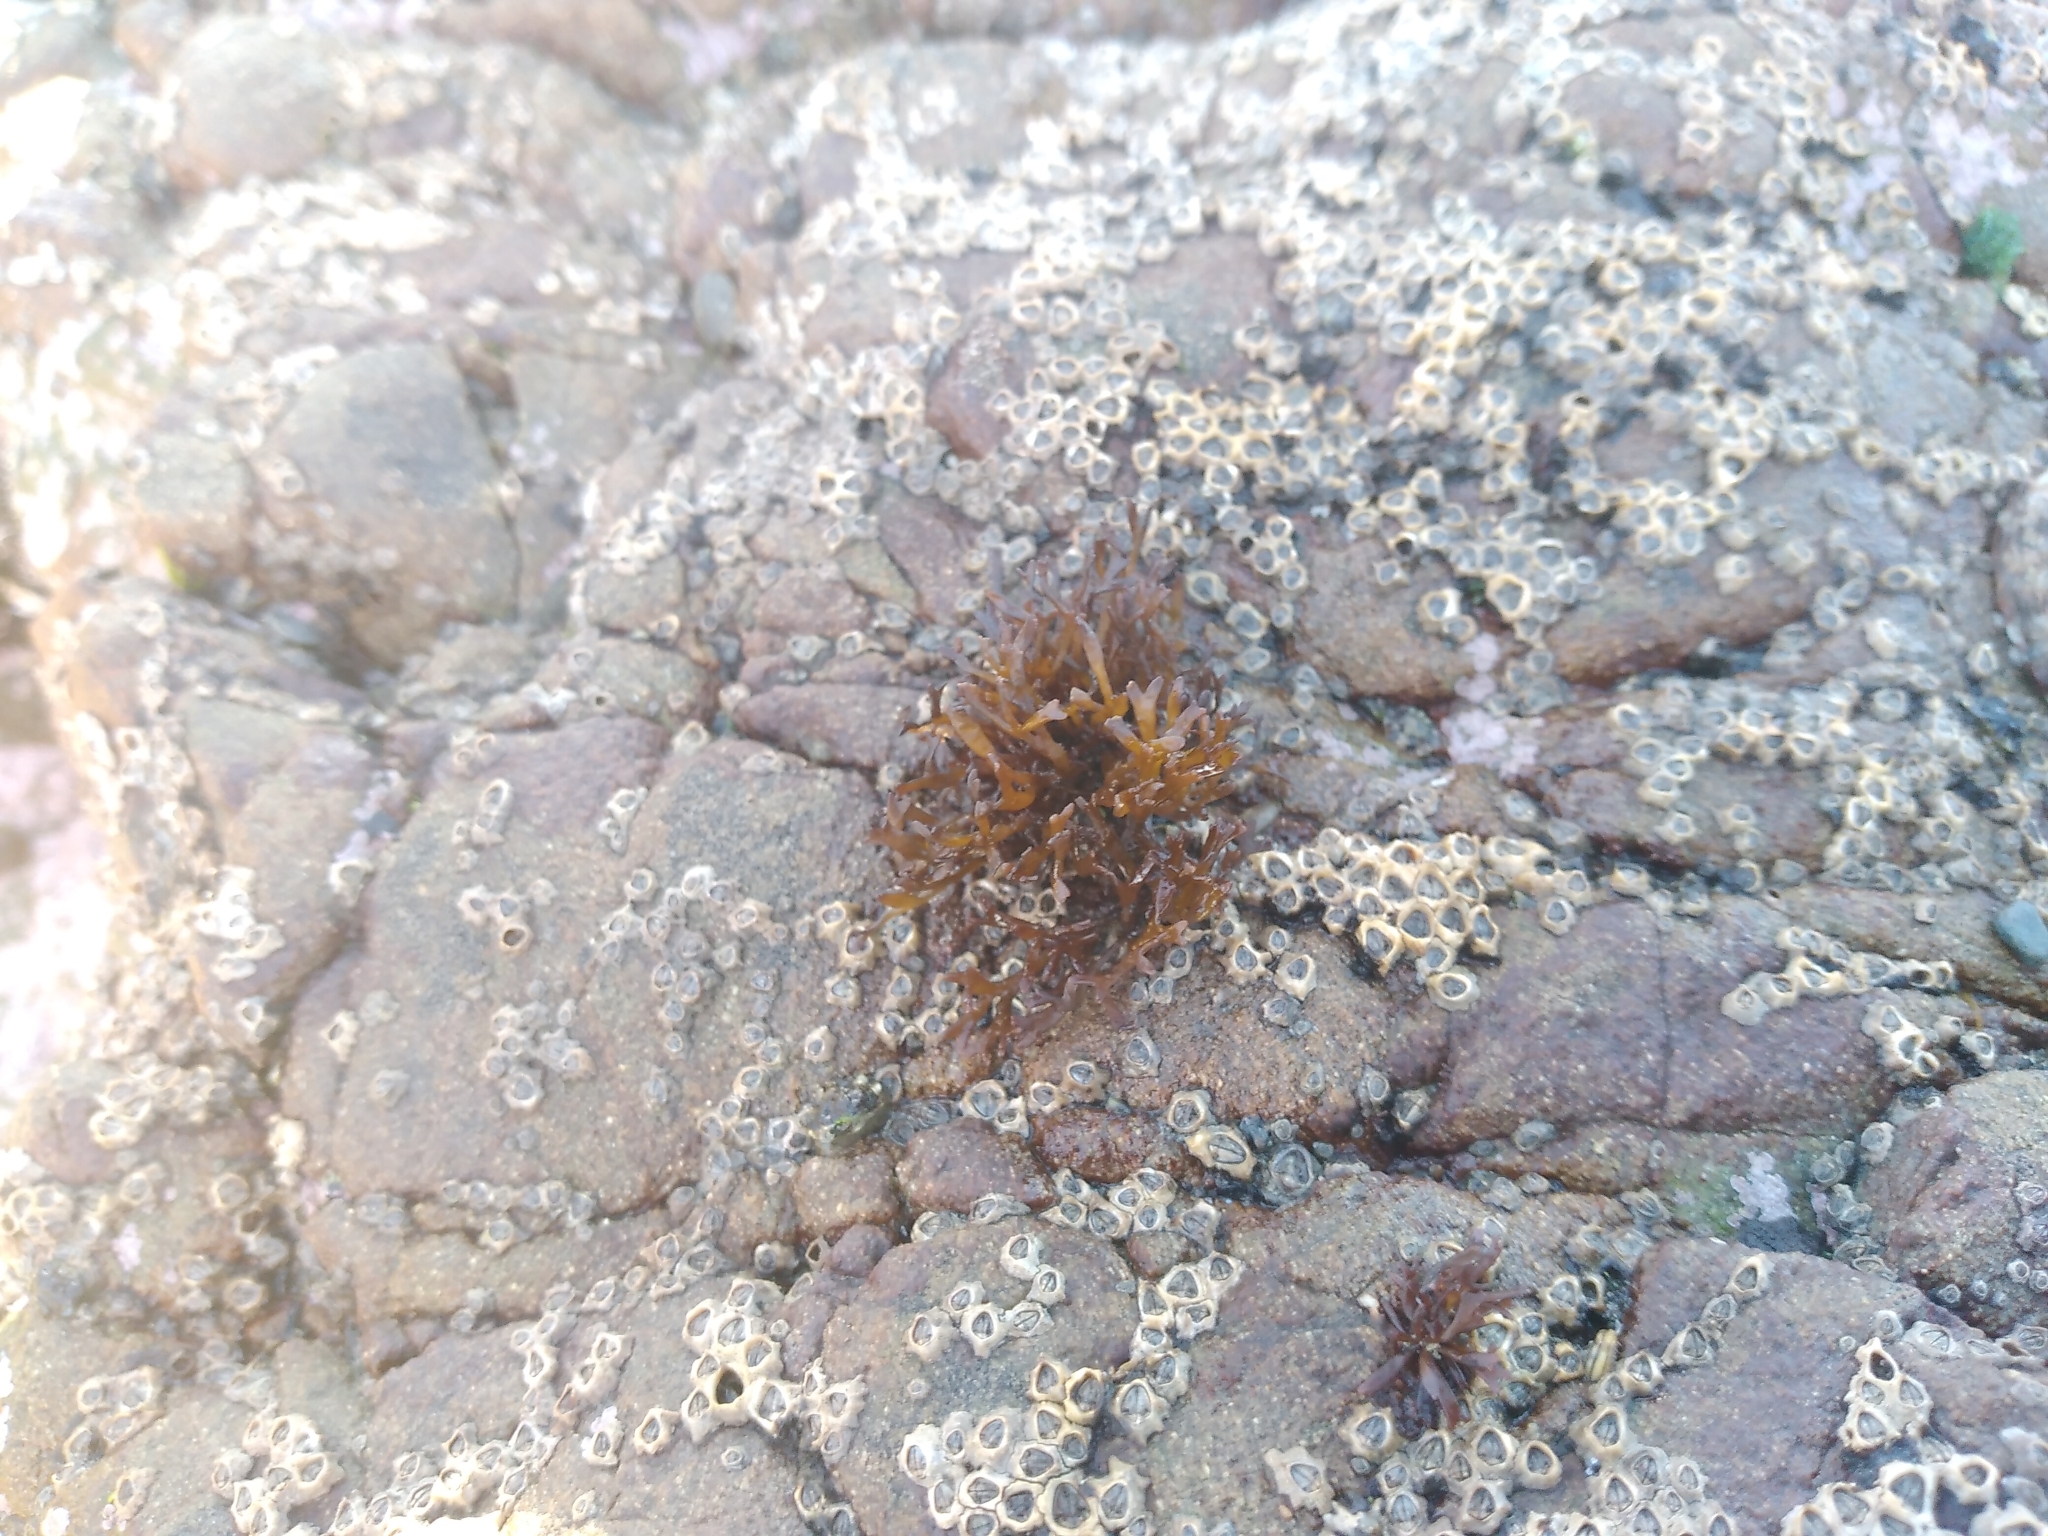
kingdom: Plantae
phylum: Rhodophyta
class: Florideophyceae
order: Nemaliales
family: Scinaiaceae
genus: Nothogenia
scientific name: Nothogenia fastigiata
